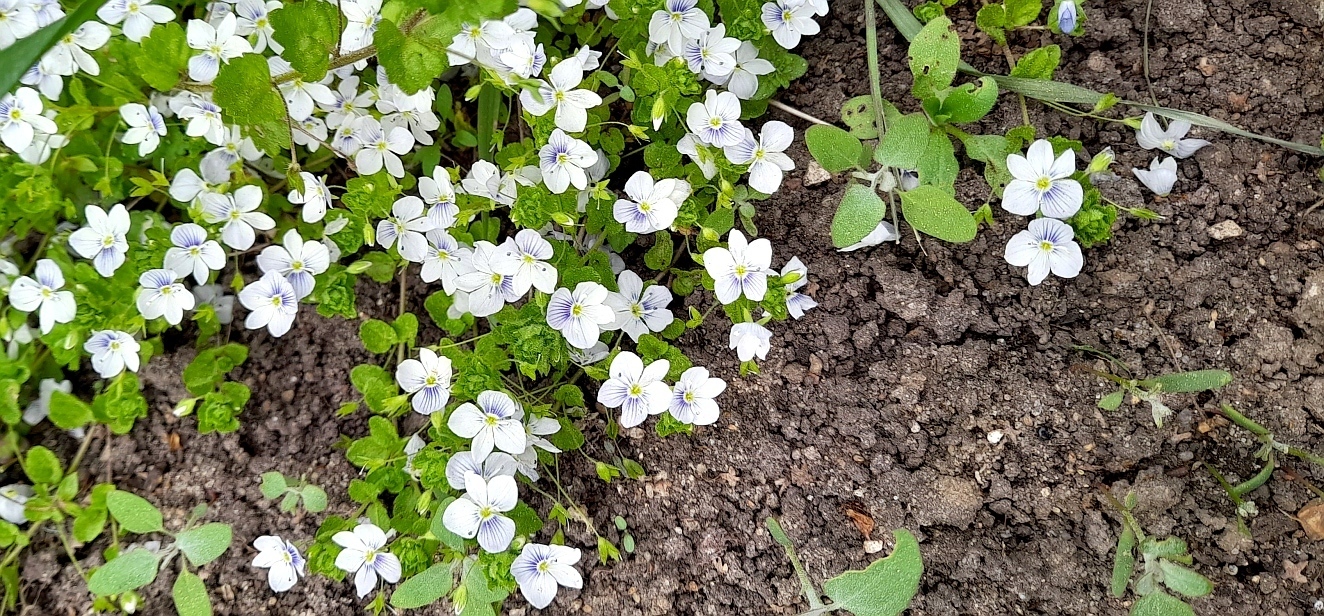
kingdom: Plantae
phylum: Tracheophyta
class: Magnoliopsida
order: Lamiales
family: Plantaginaceae
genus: Veronica
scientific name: Veronica filiformis
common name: Slender speedwell
